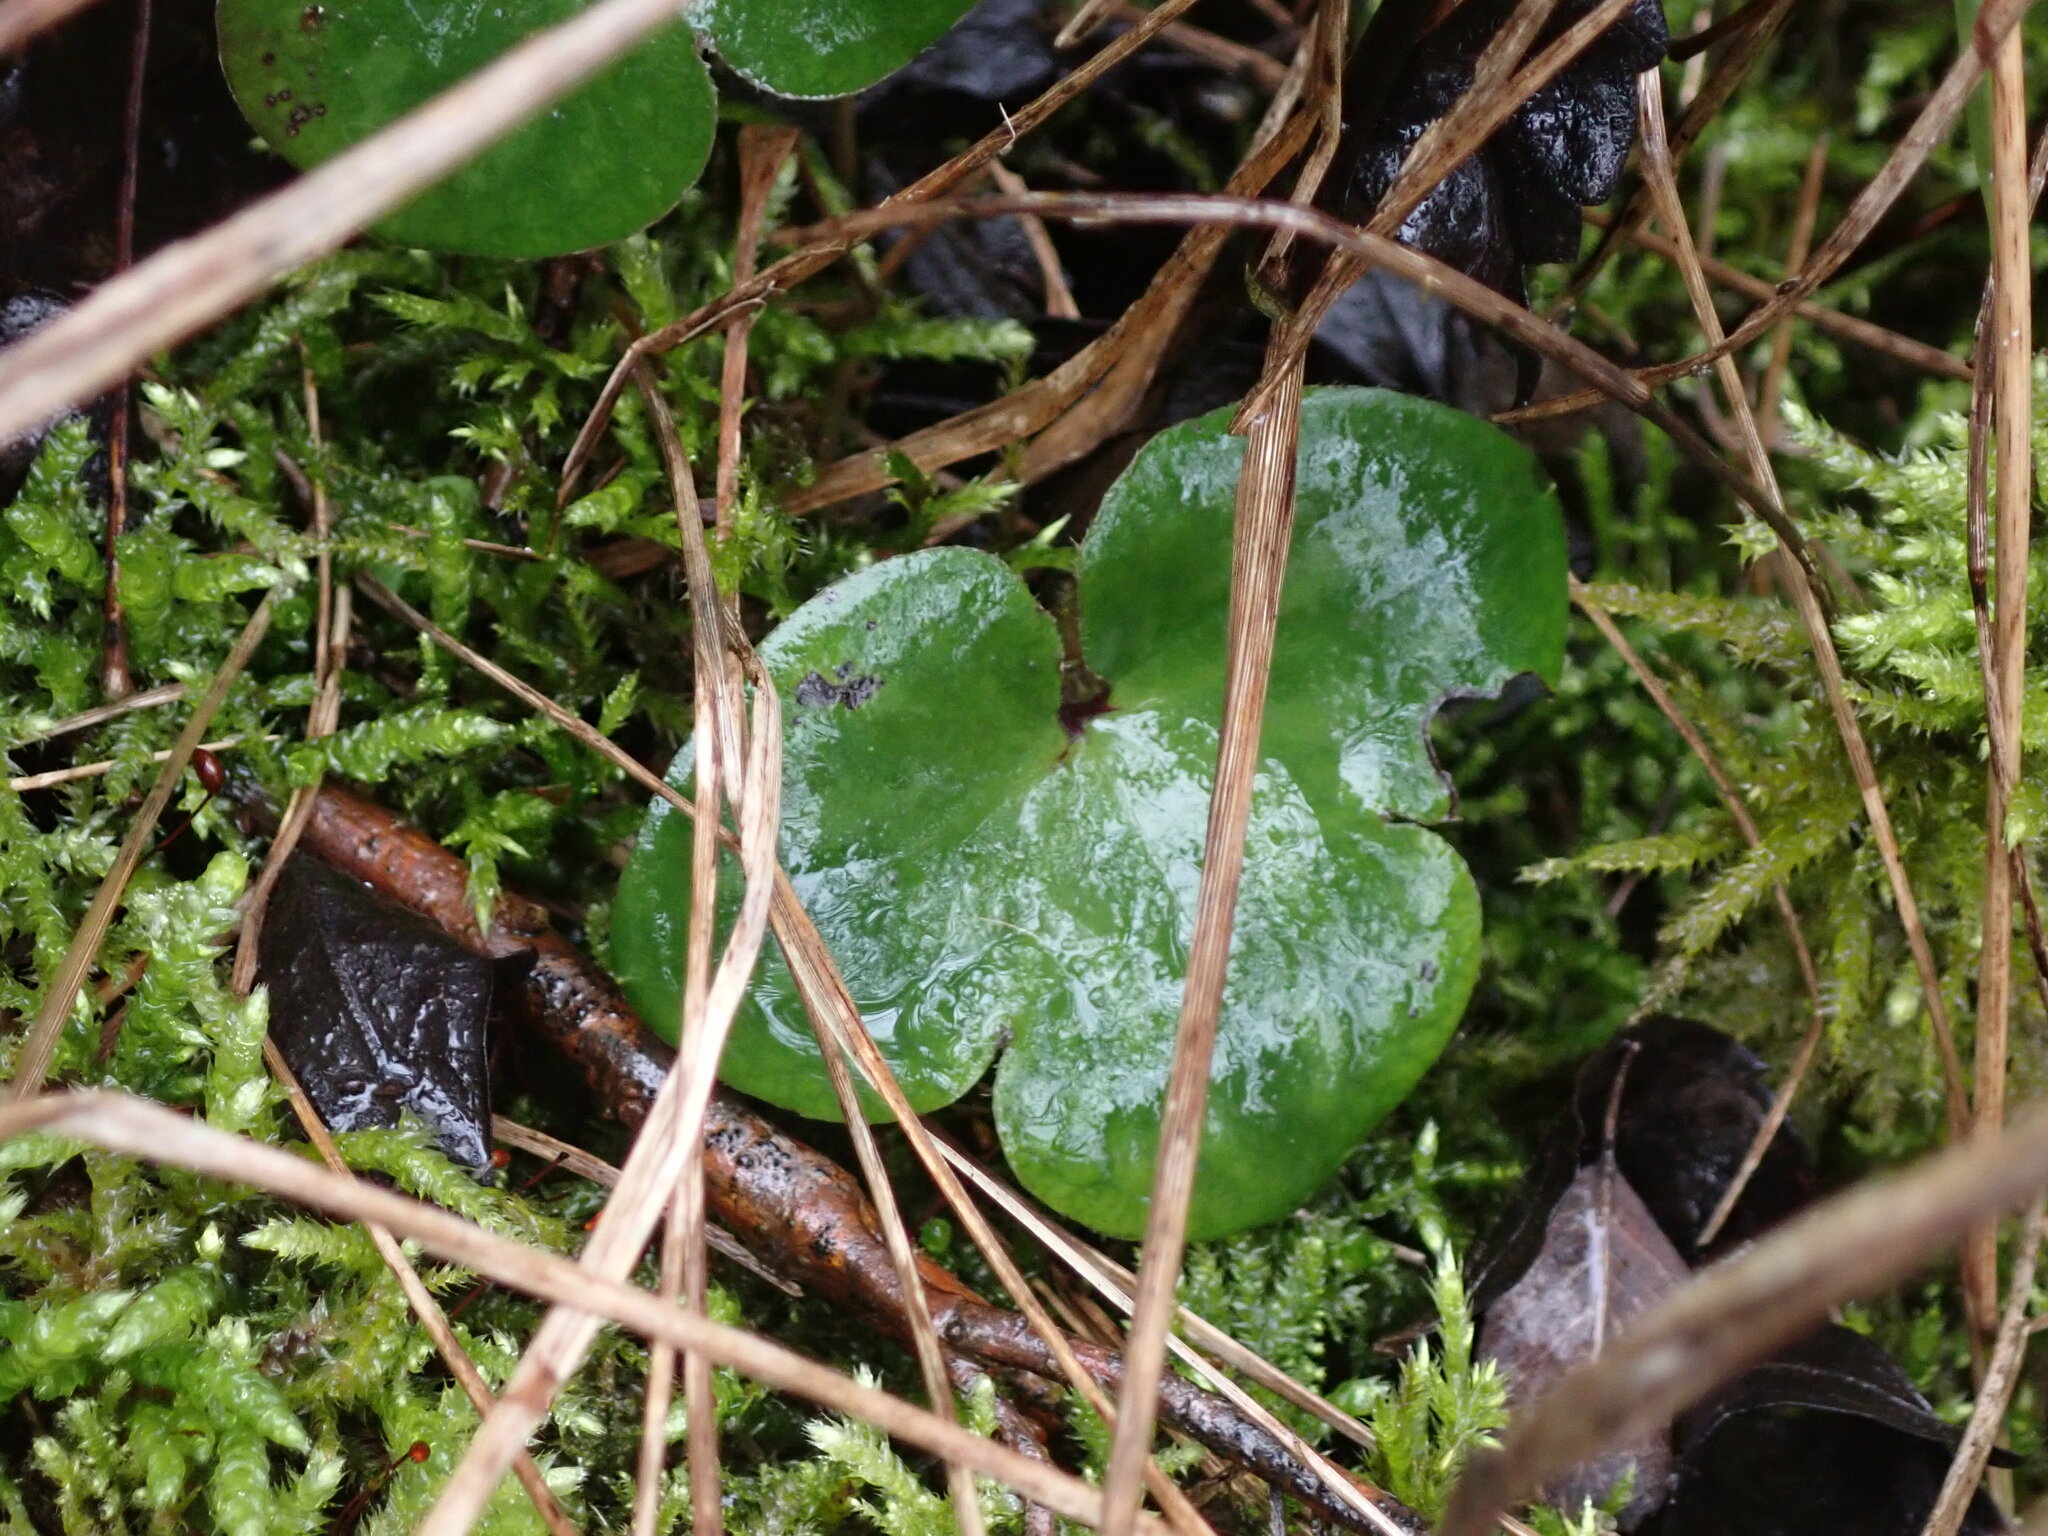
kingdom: Plantae
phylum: Tracheophyta
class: Magnoliopsida
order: Ranunculales
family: Ranunculaceae
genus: Hepatica
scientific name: Hepatica nobilis
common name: Liverleaf
